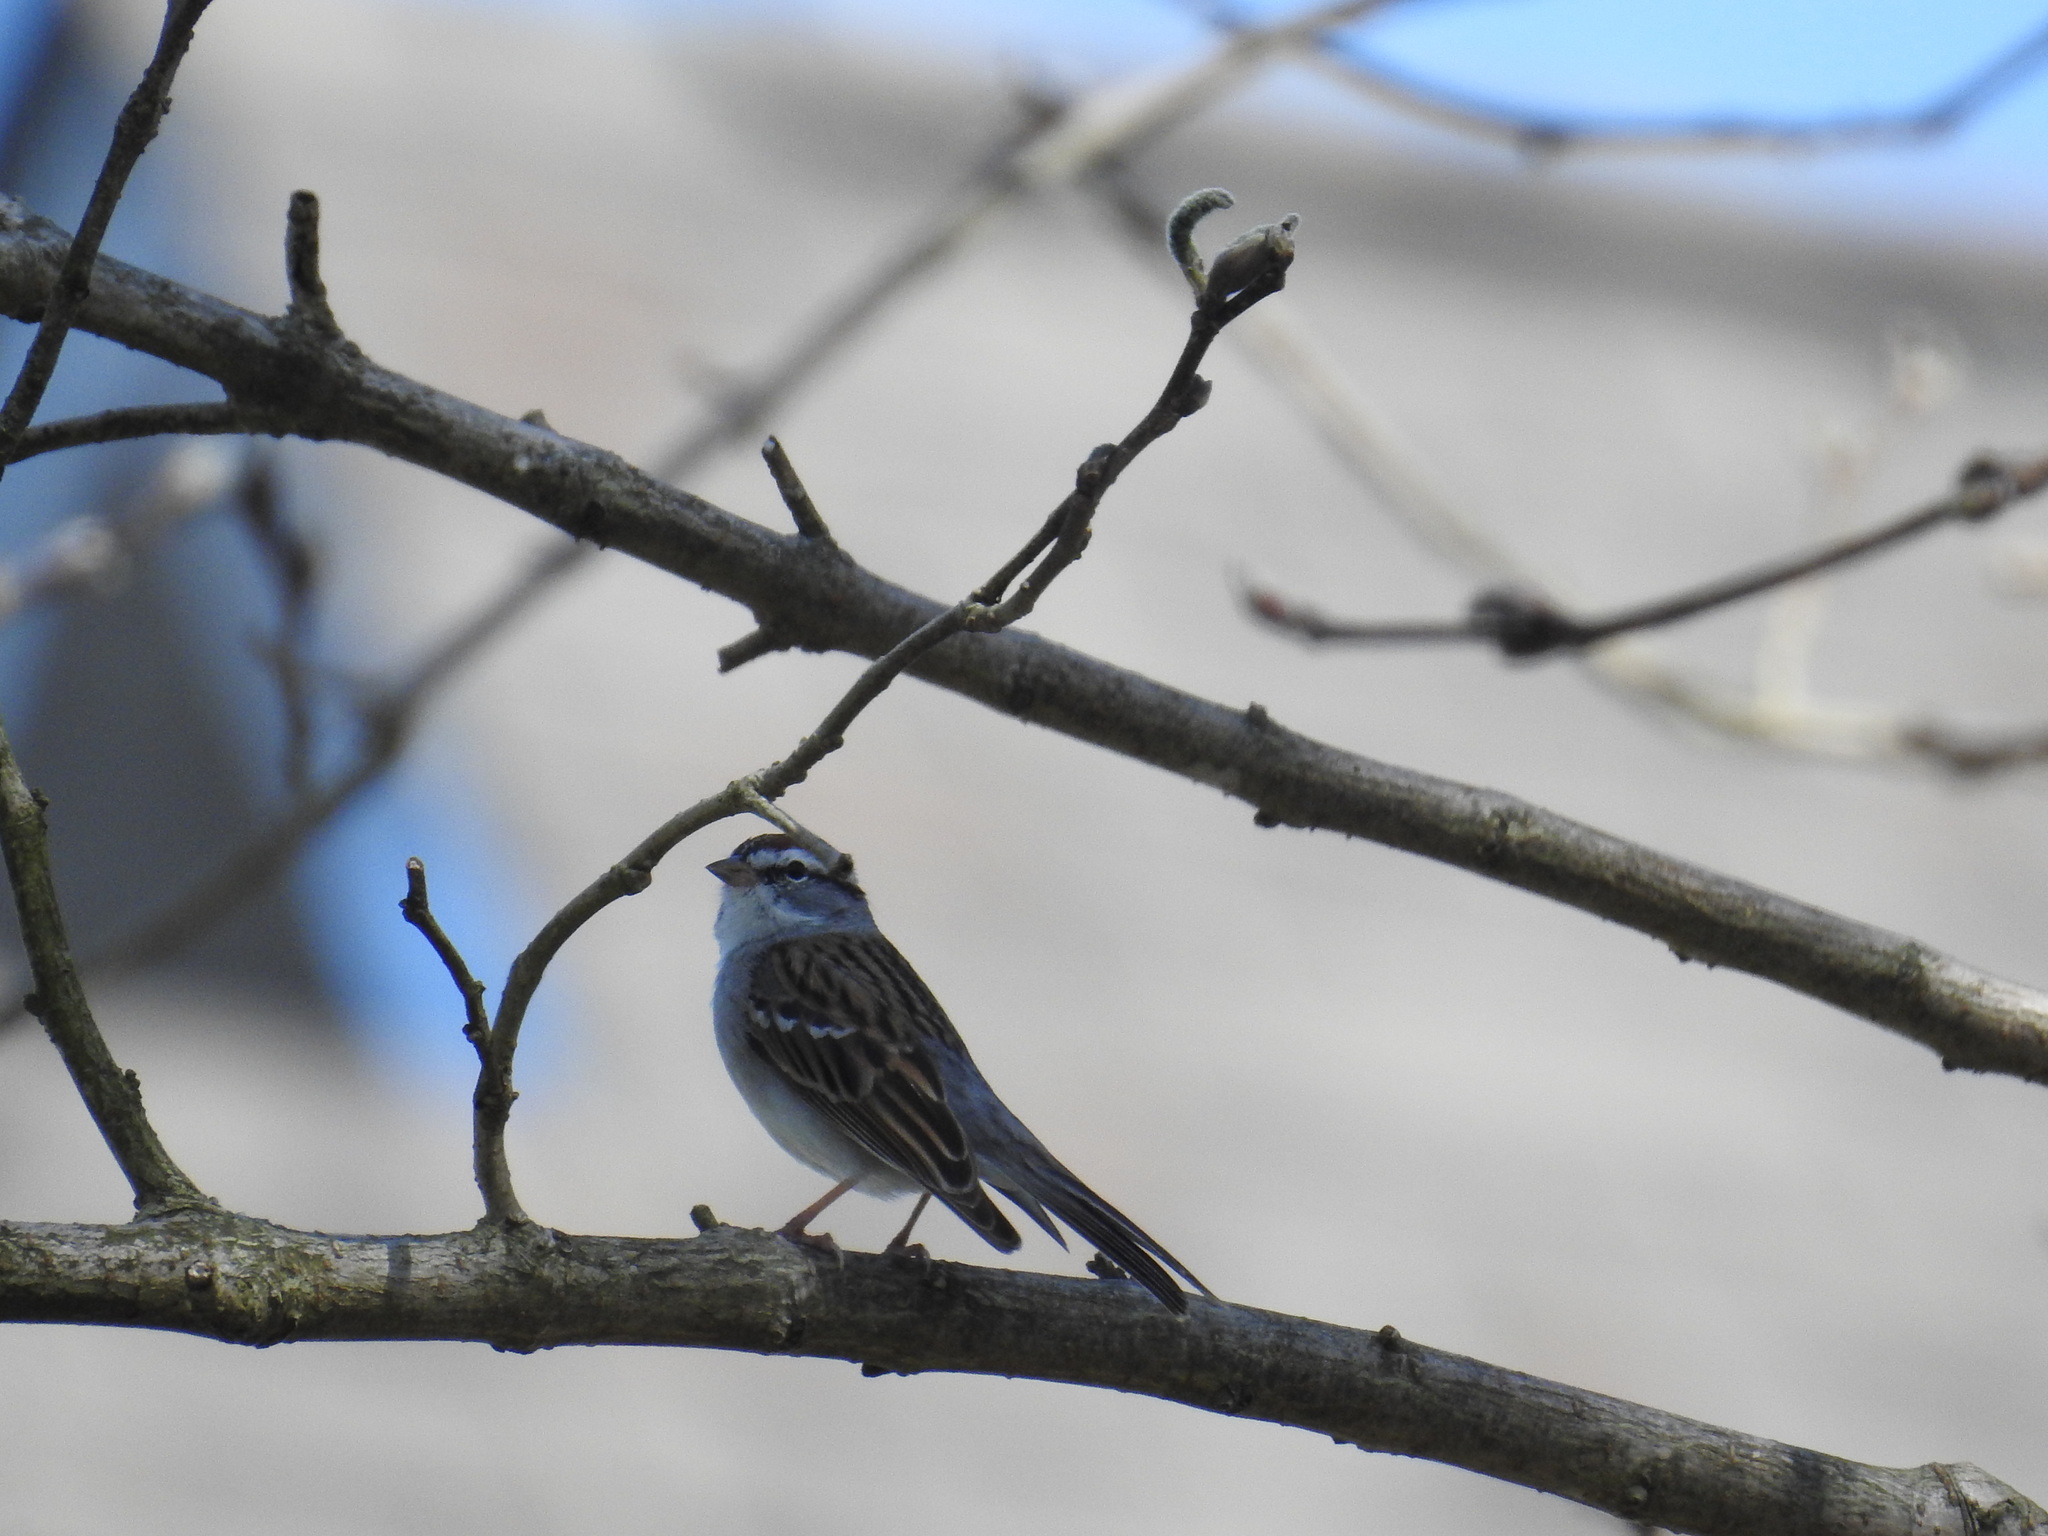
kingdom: Animalia
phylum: Chordata
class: Aves
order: Passeriformes
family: Passerellidae
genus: Spizella
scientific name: Spizella passerina
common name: Chipping sparrow
